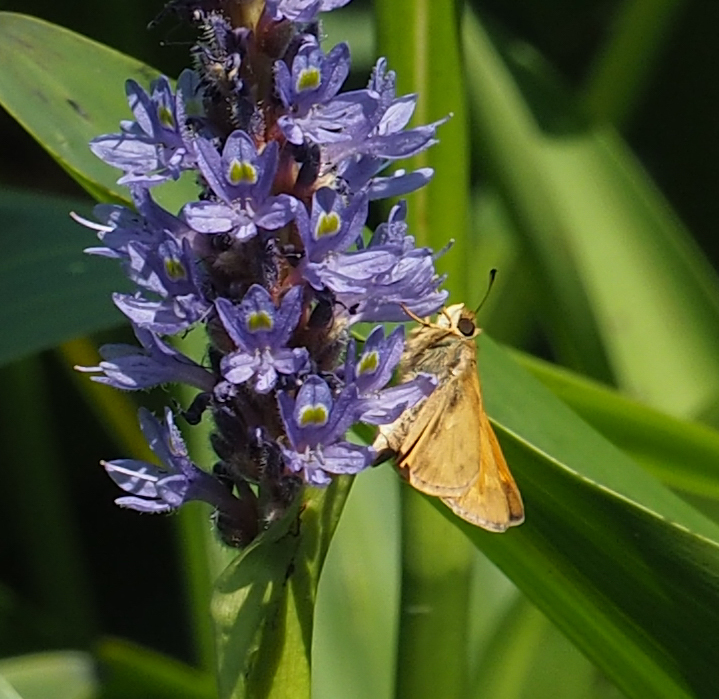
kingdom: Animalia
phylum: Arthropoda
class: Insecta
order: Lepidoptera
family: Hesperiidae
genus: Atalopedes
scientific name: Atalopedes
